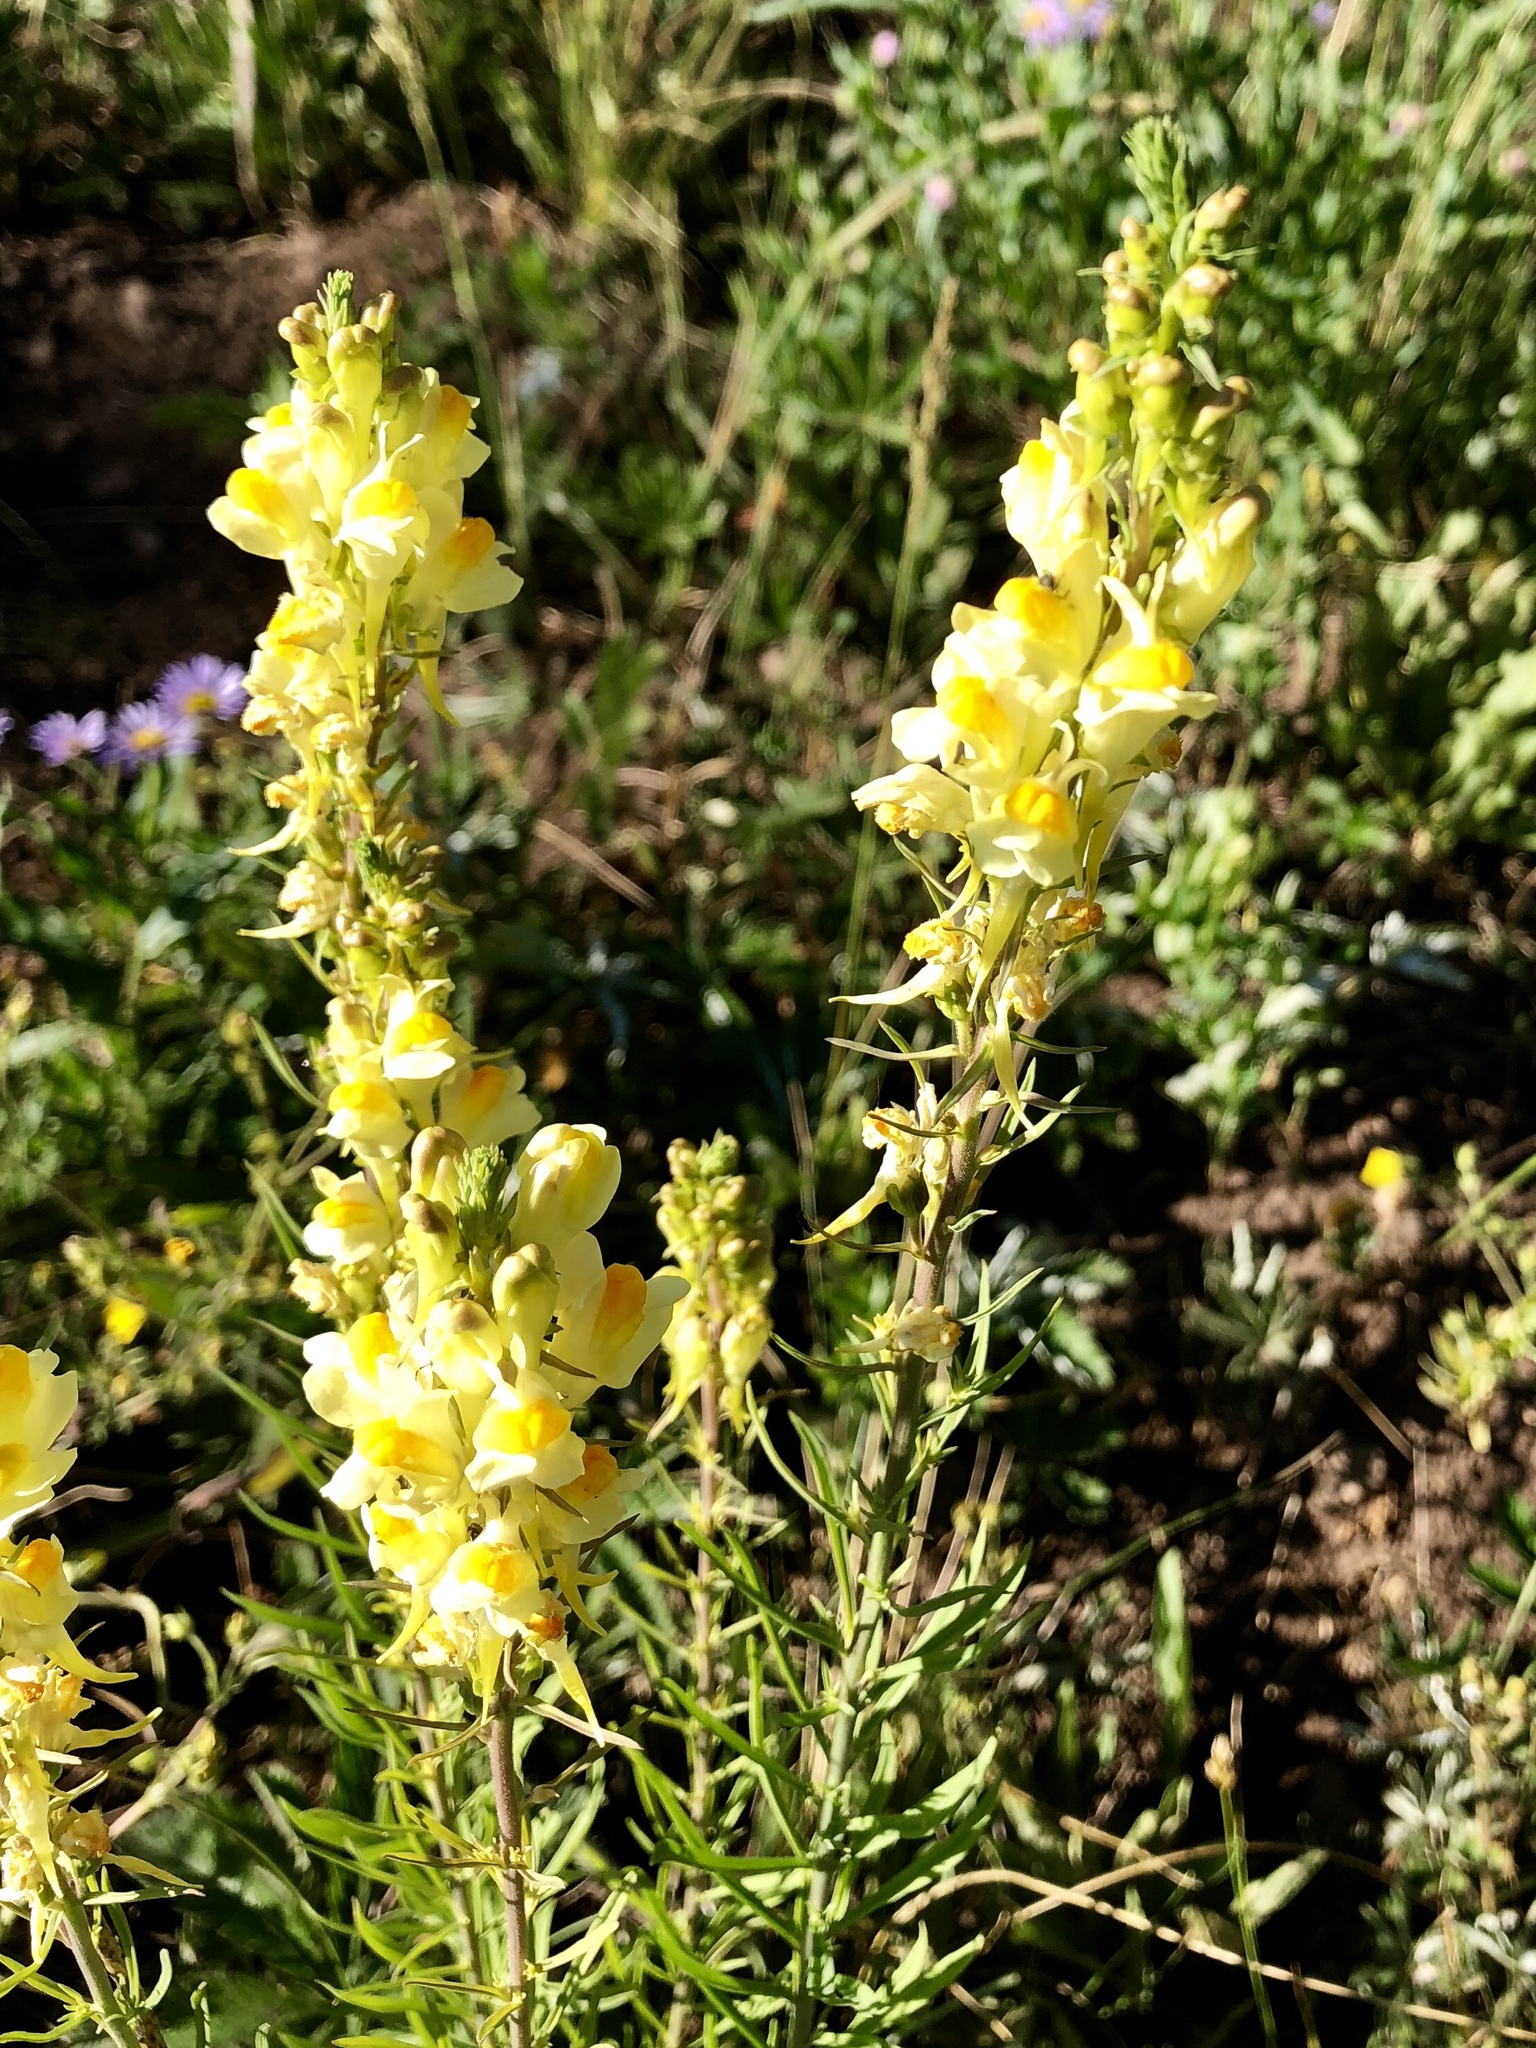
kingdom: Plantae
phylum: Tracheophyta
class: Magnoliopsida
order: Lamiales
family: Plantaginaceae
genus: Linaria
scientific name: Linaria vulgaris
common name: Butter and eggs
